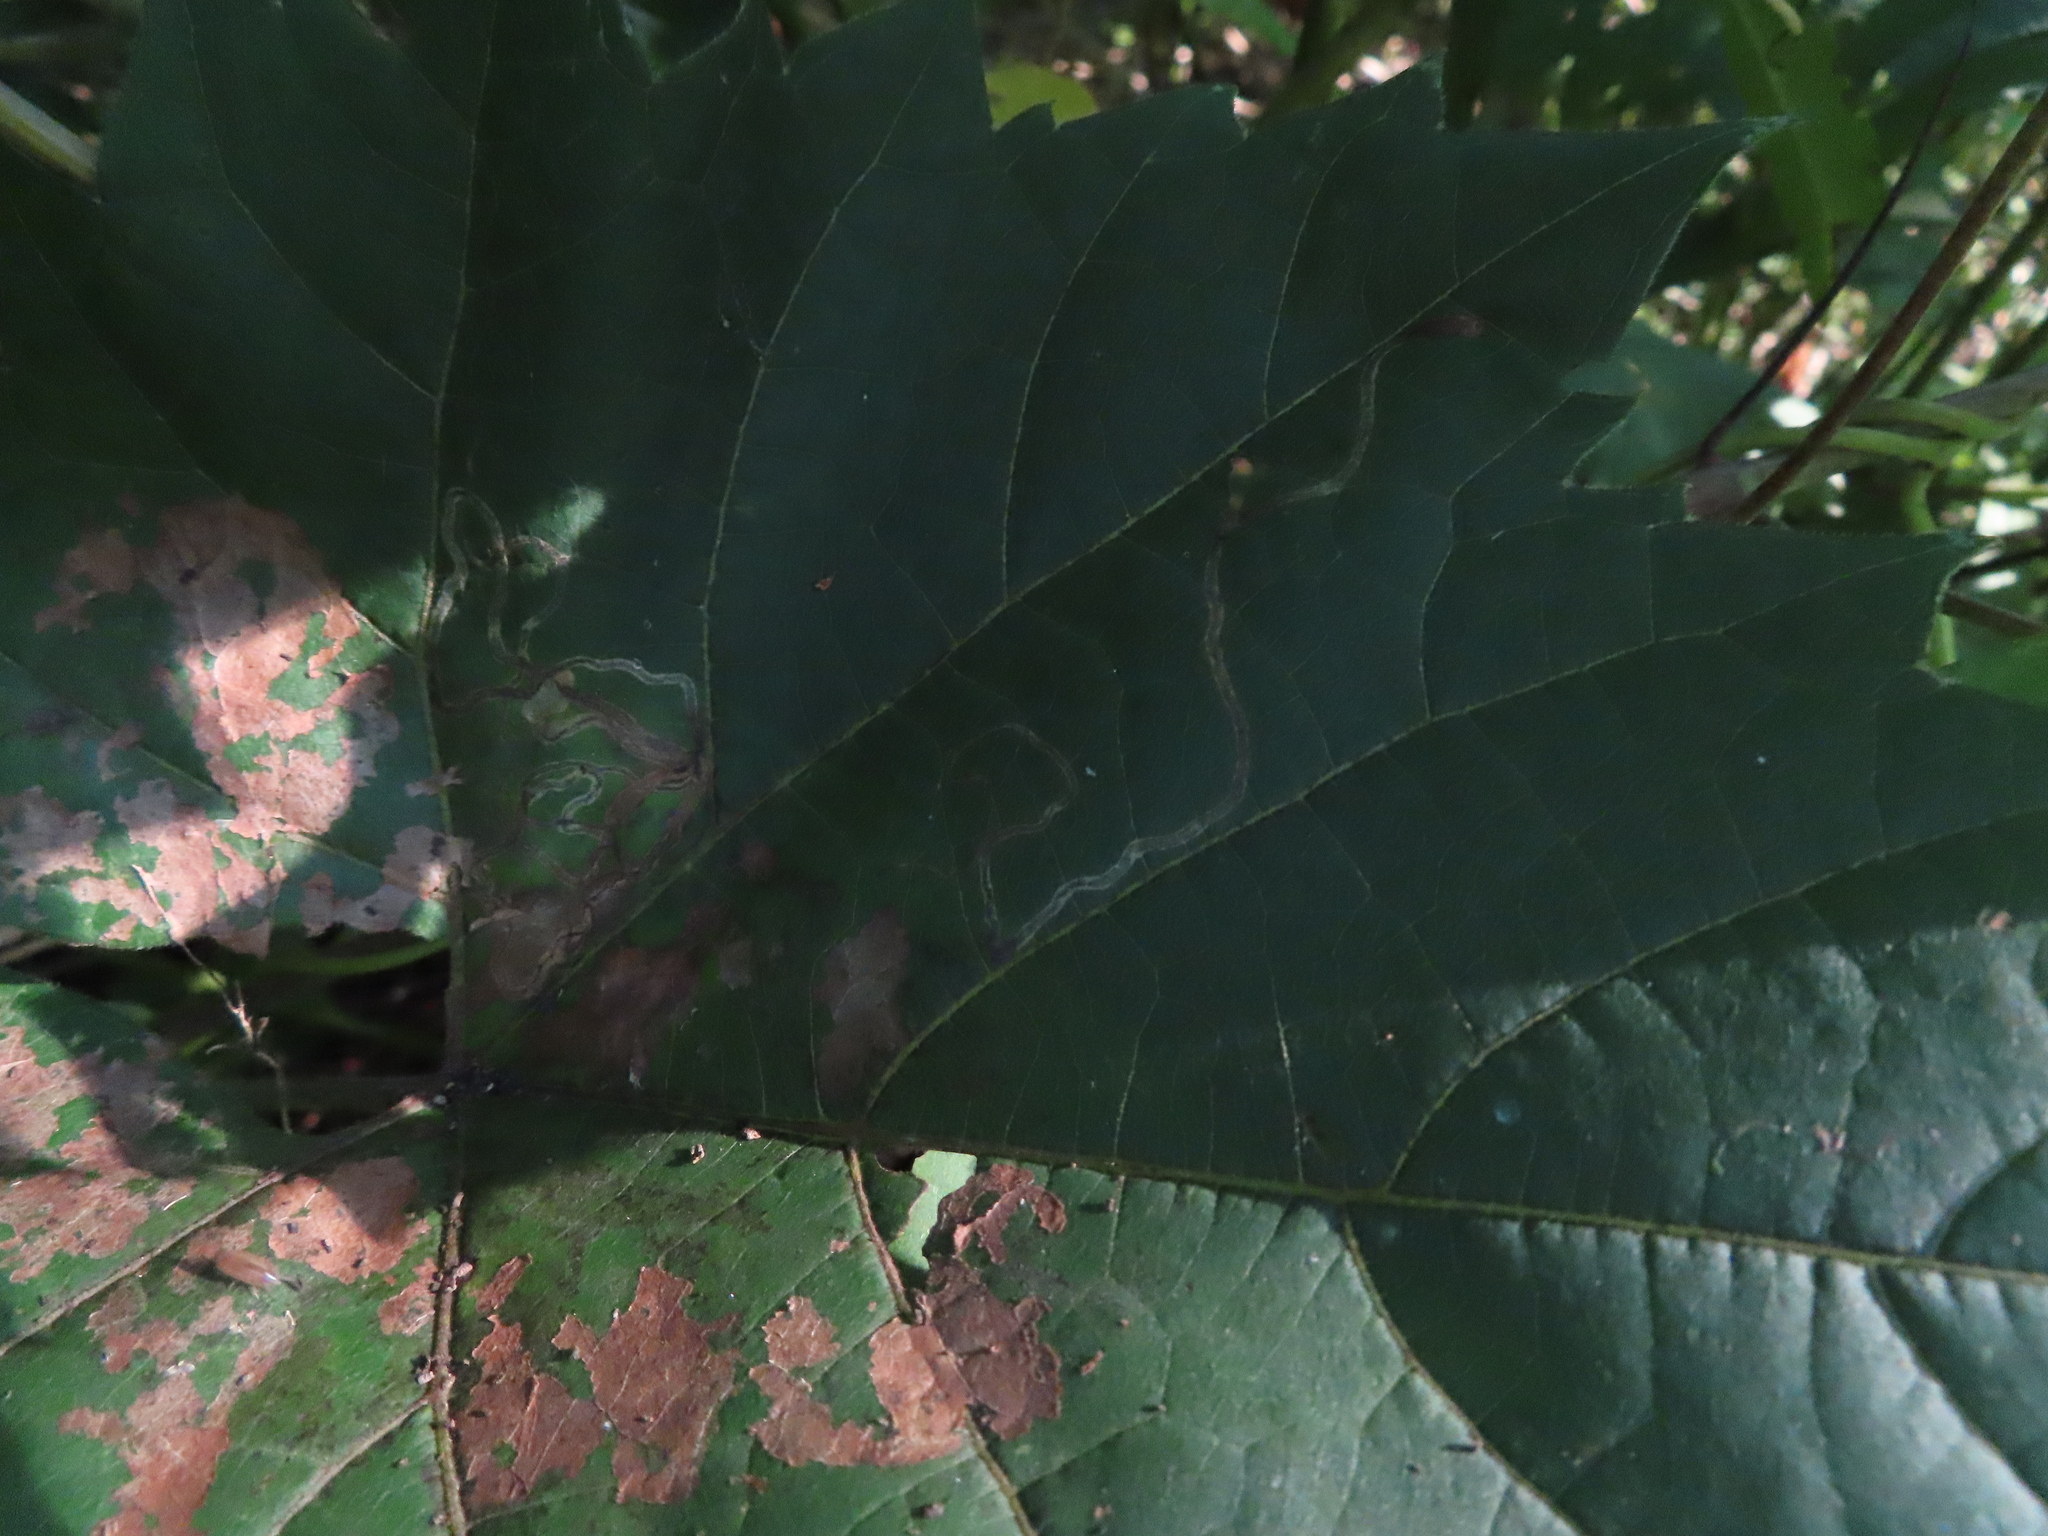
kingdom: Animalia
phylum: Arthropoda
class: Insecta
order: Lepidoptera
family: Gracillariidae
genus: Phyllocnistis
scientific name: Phyllocnistis vitifoliella
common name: Grape leaf-miner moth
